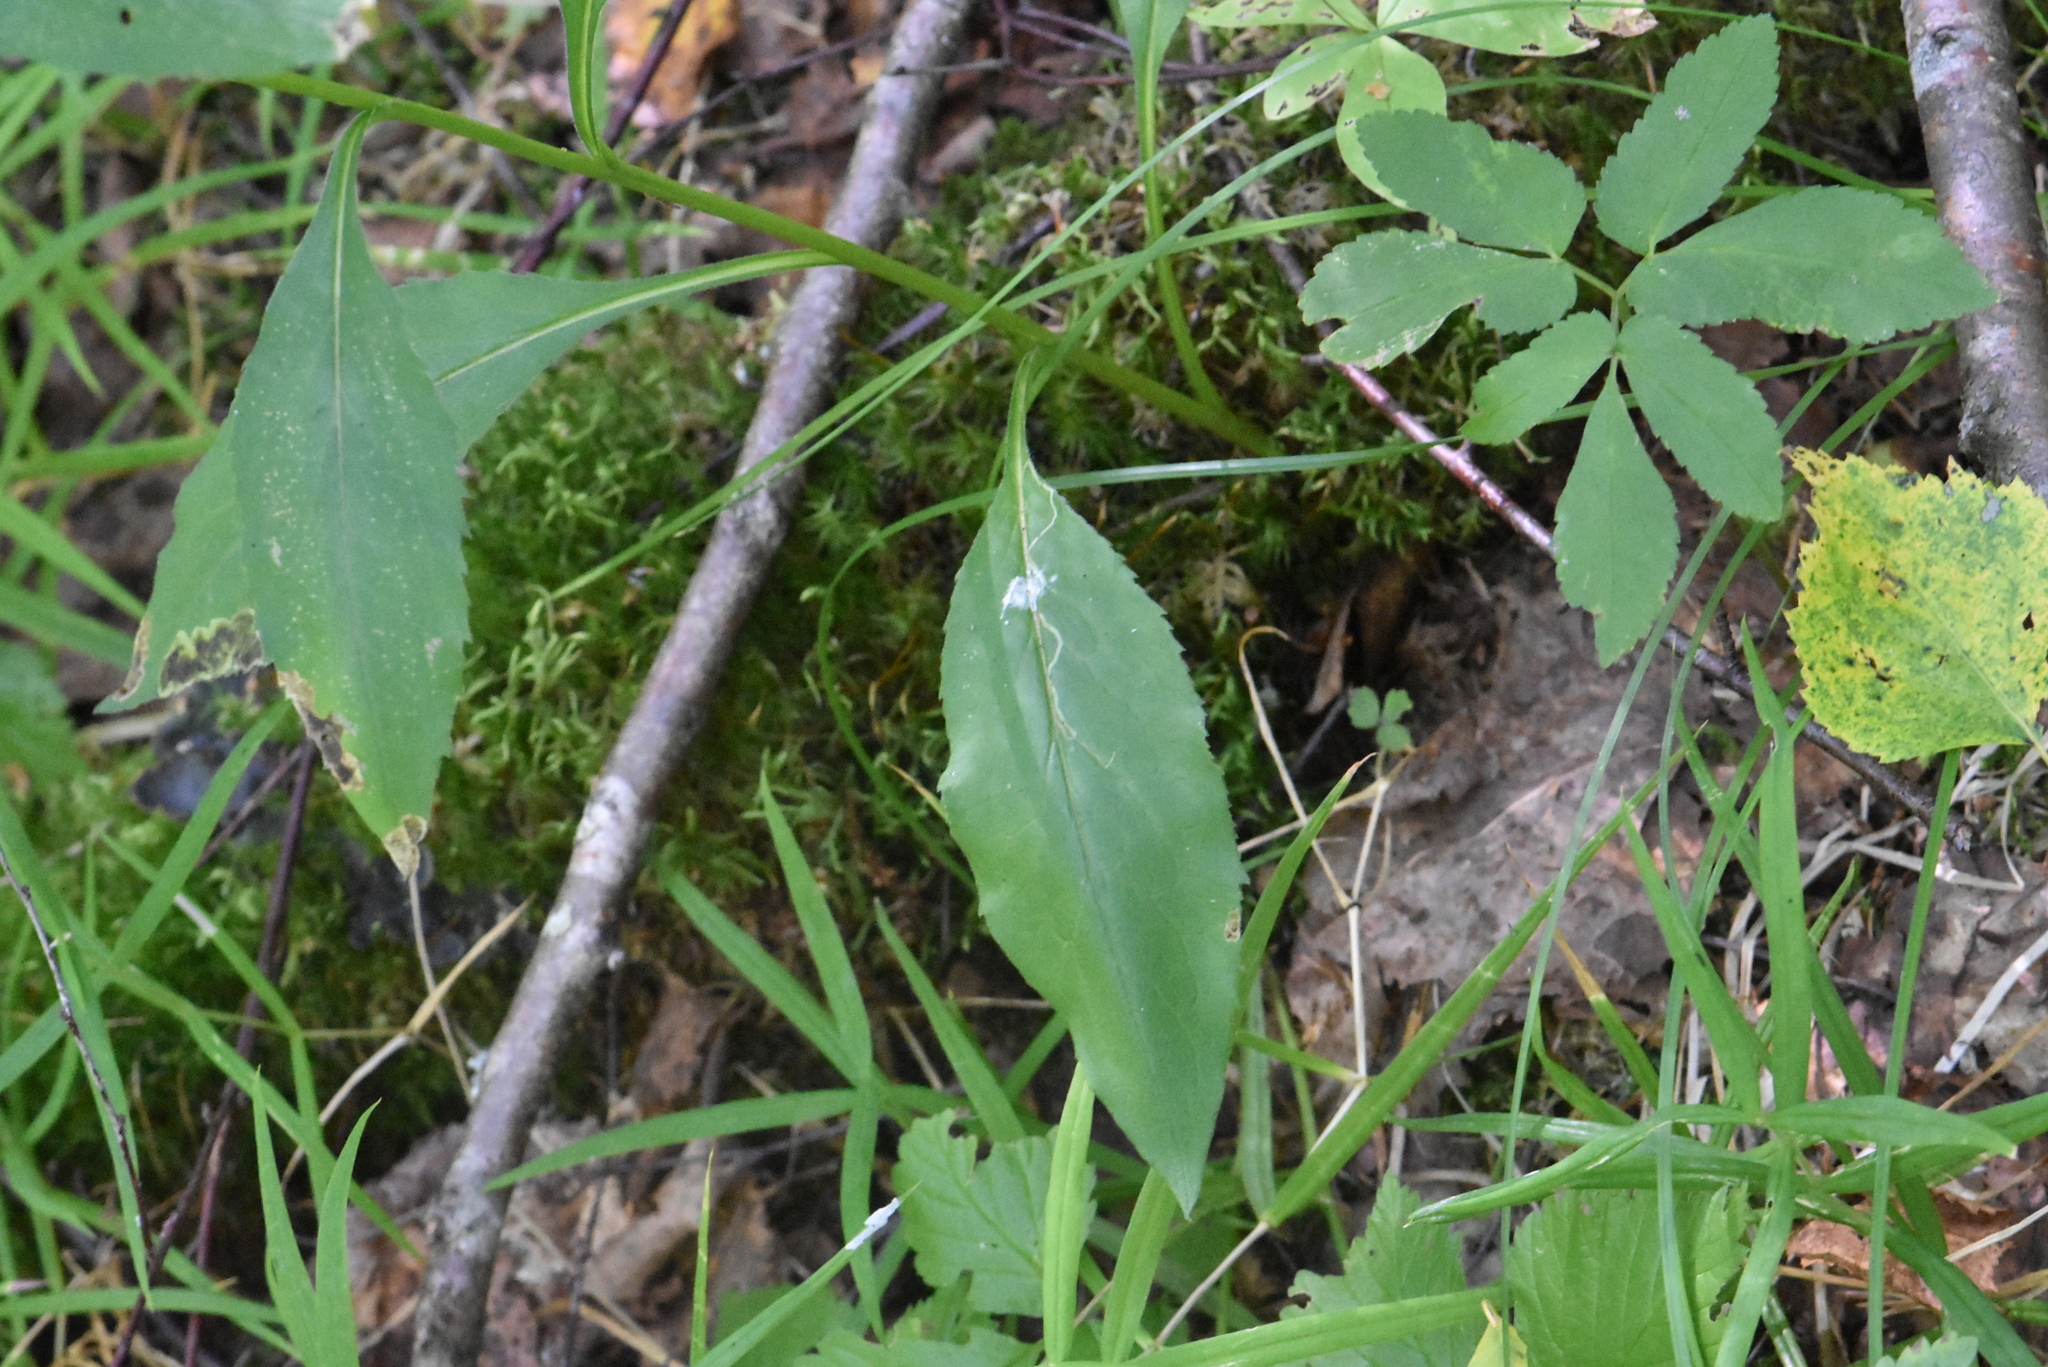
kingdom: Plantae
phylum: Tracheophyta
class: Magnoliopsida
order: Asterales
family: Asteraceae
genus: Solidago
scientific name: Solidago virgaurea
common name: Goldenrod
